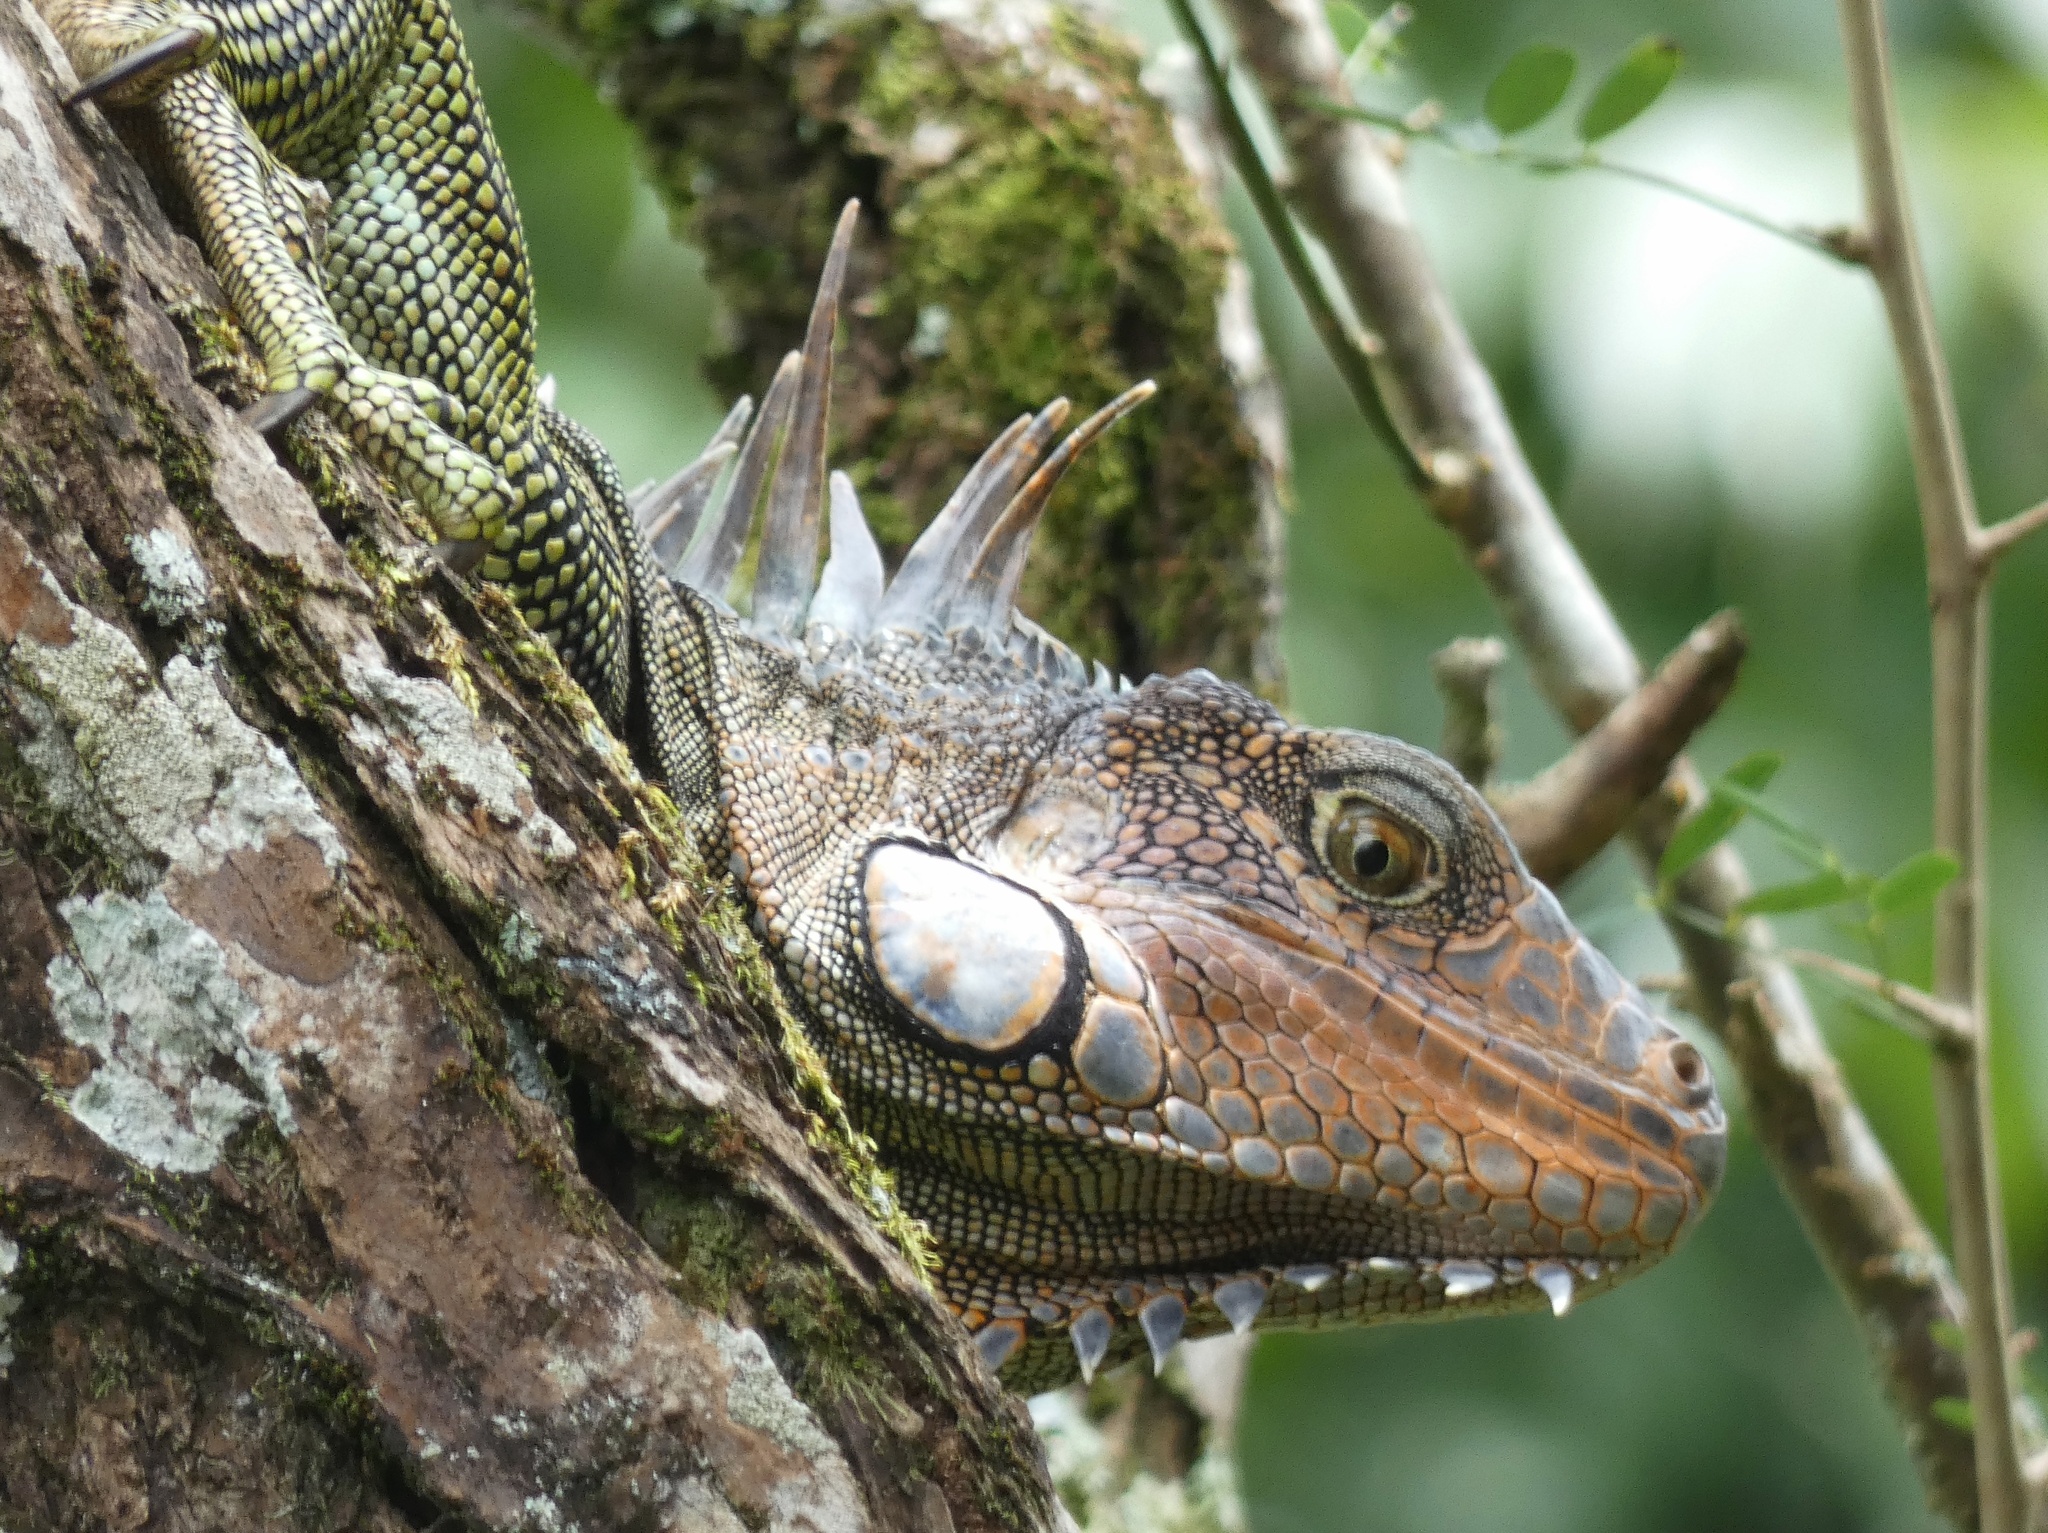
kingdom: Animalia
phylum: Chordata
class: Squamata
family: Iguanidae
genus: Iguana
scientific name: Iguana iguana
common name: Green iguana
